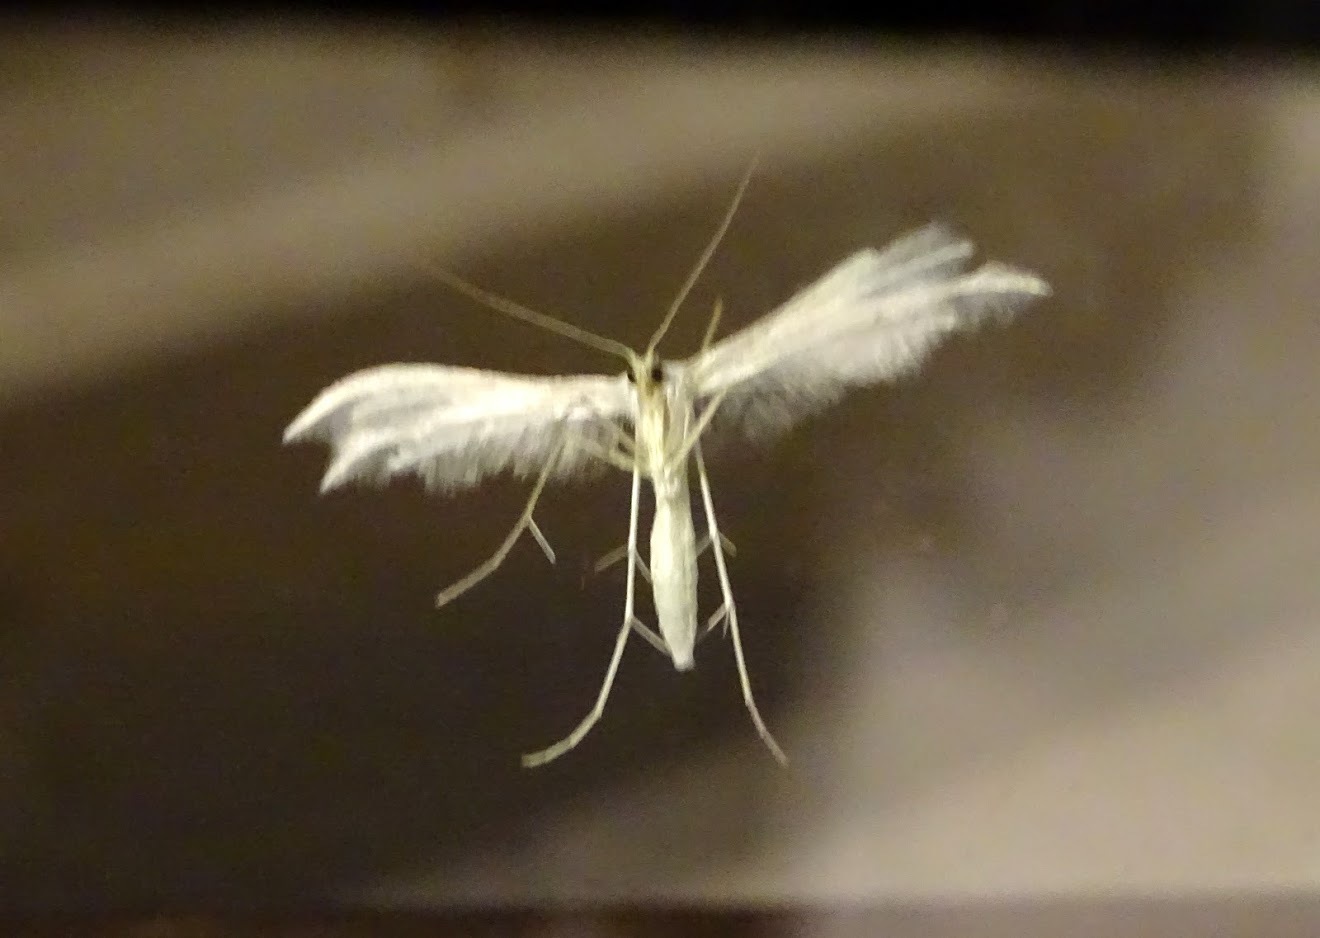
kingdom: Animalia
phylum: Arthropoda
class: Insecta
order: Lepidoptera
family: Pterophoridae
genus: Pterophorus
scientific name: Pterophorus pentadactyla
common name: White plume moth
